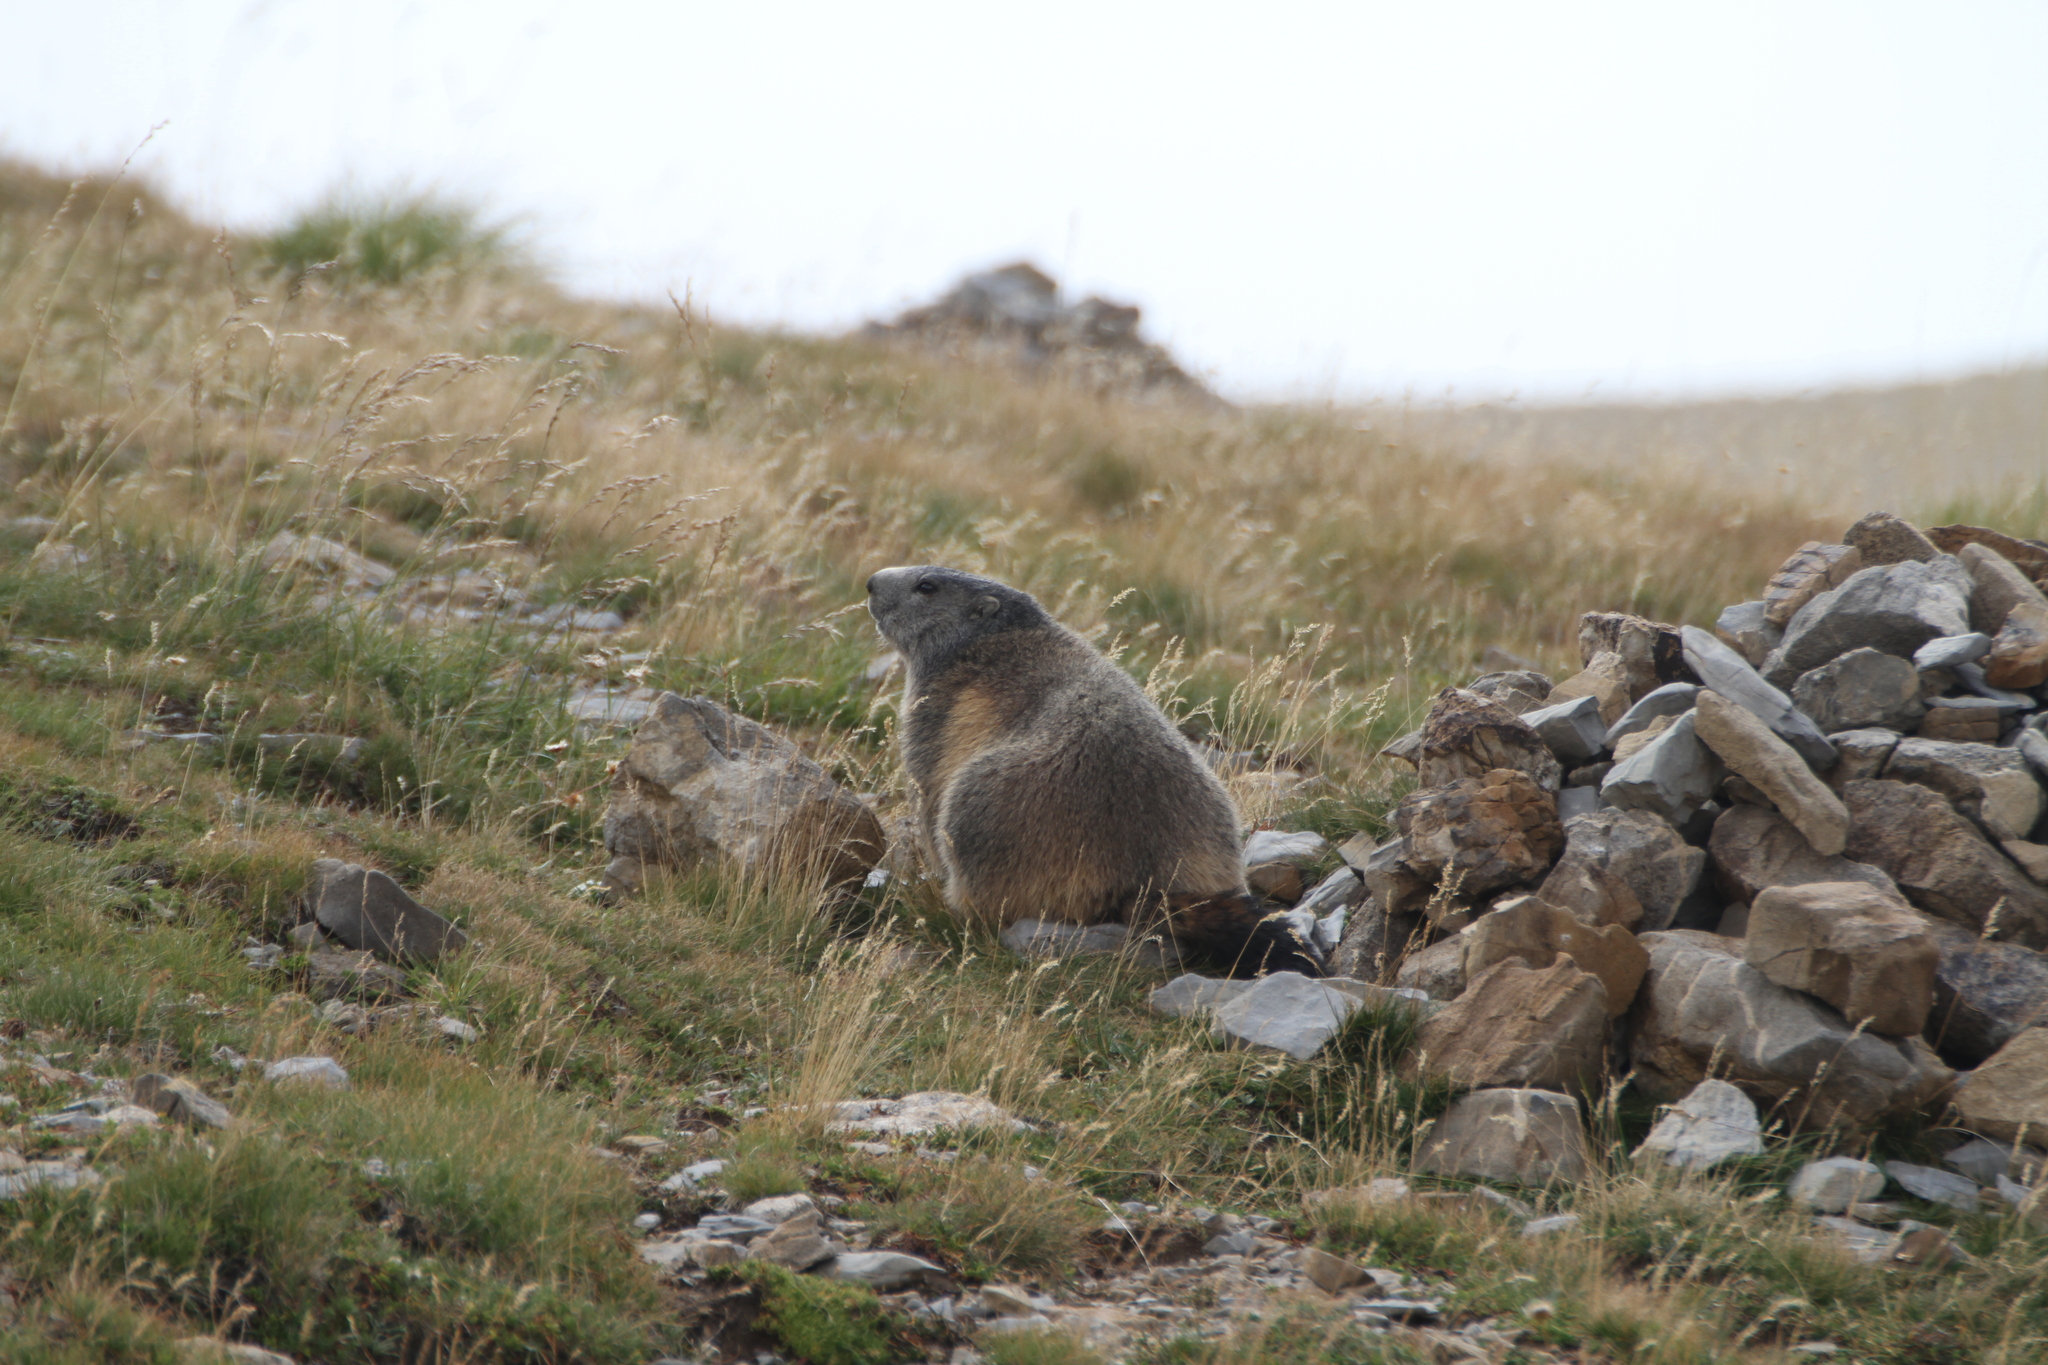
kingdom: Animalia
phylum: Chordata
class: Mammalia
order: Rodentia
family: Sciuridae
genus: Marmota
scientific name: Marmota marmota
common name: Alpine marmot
